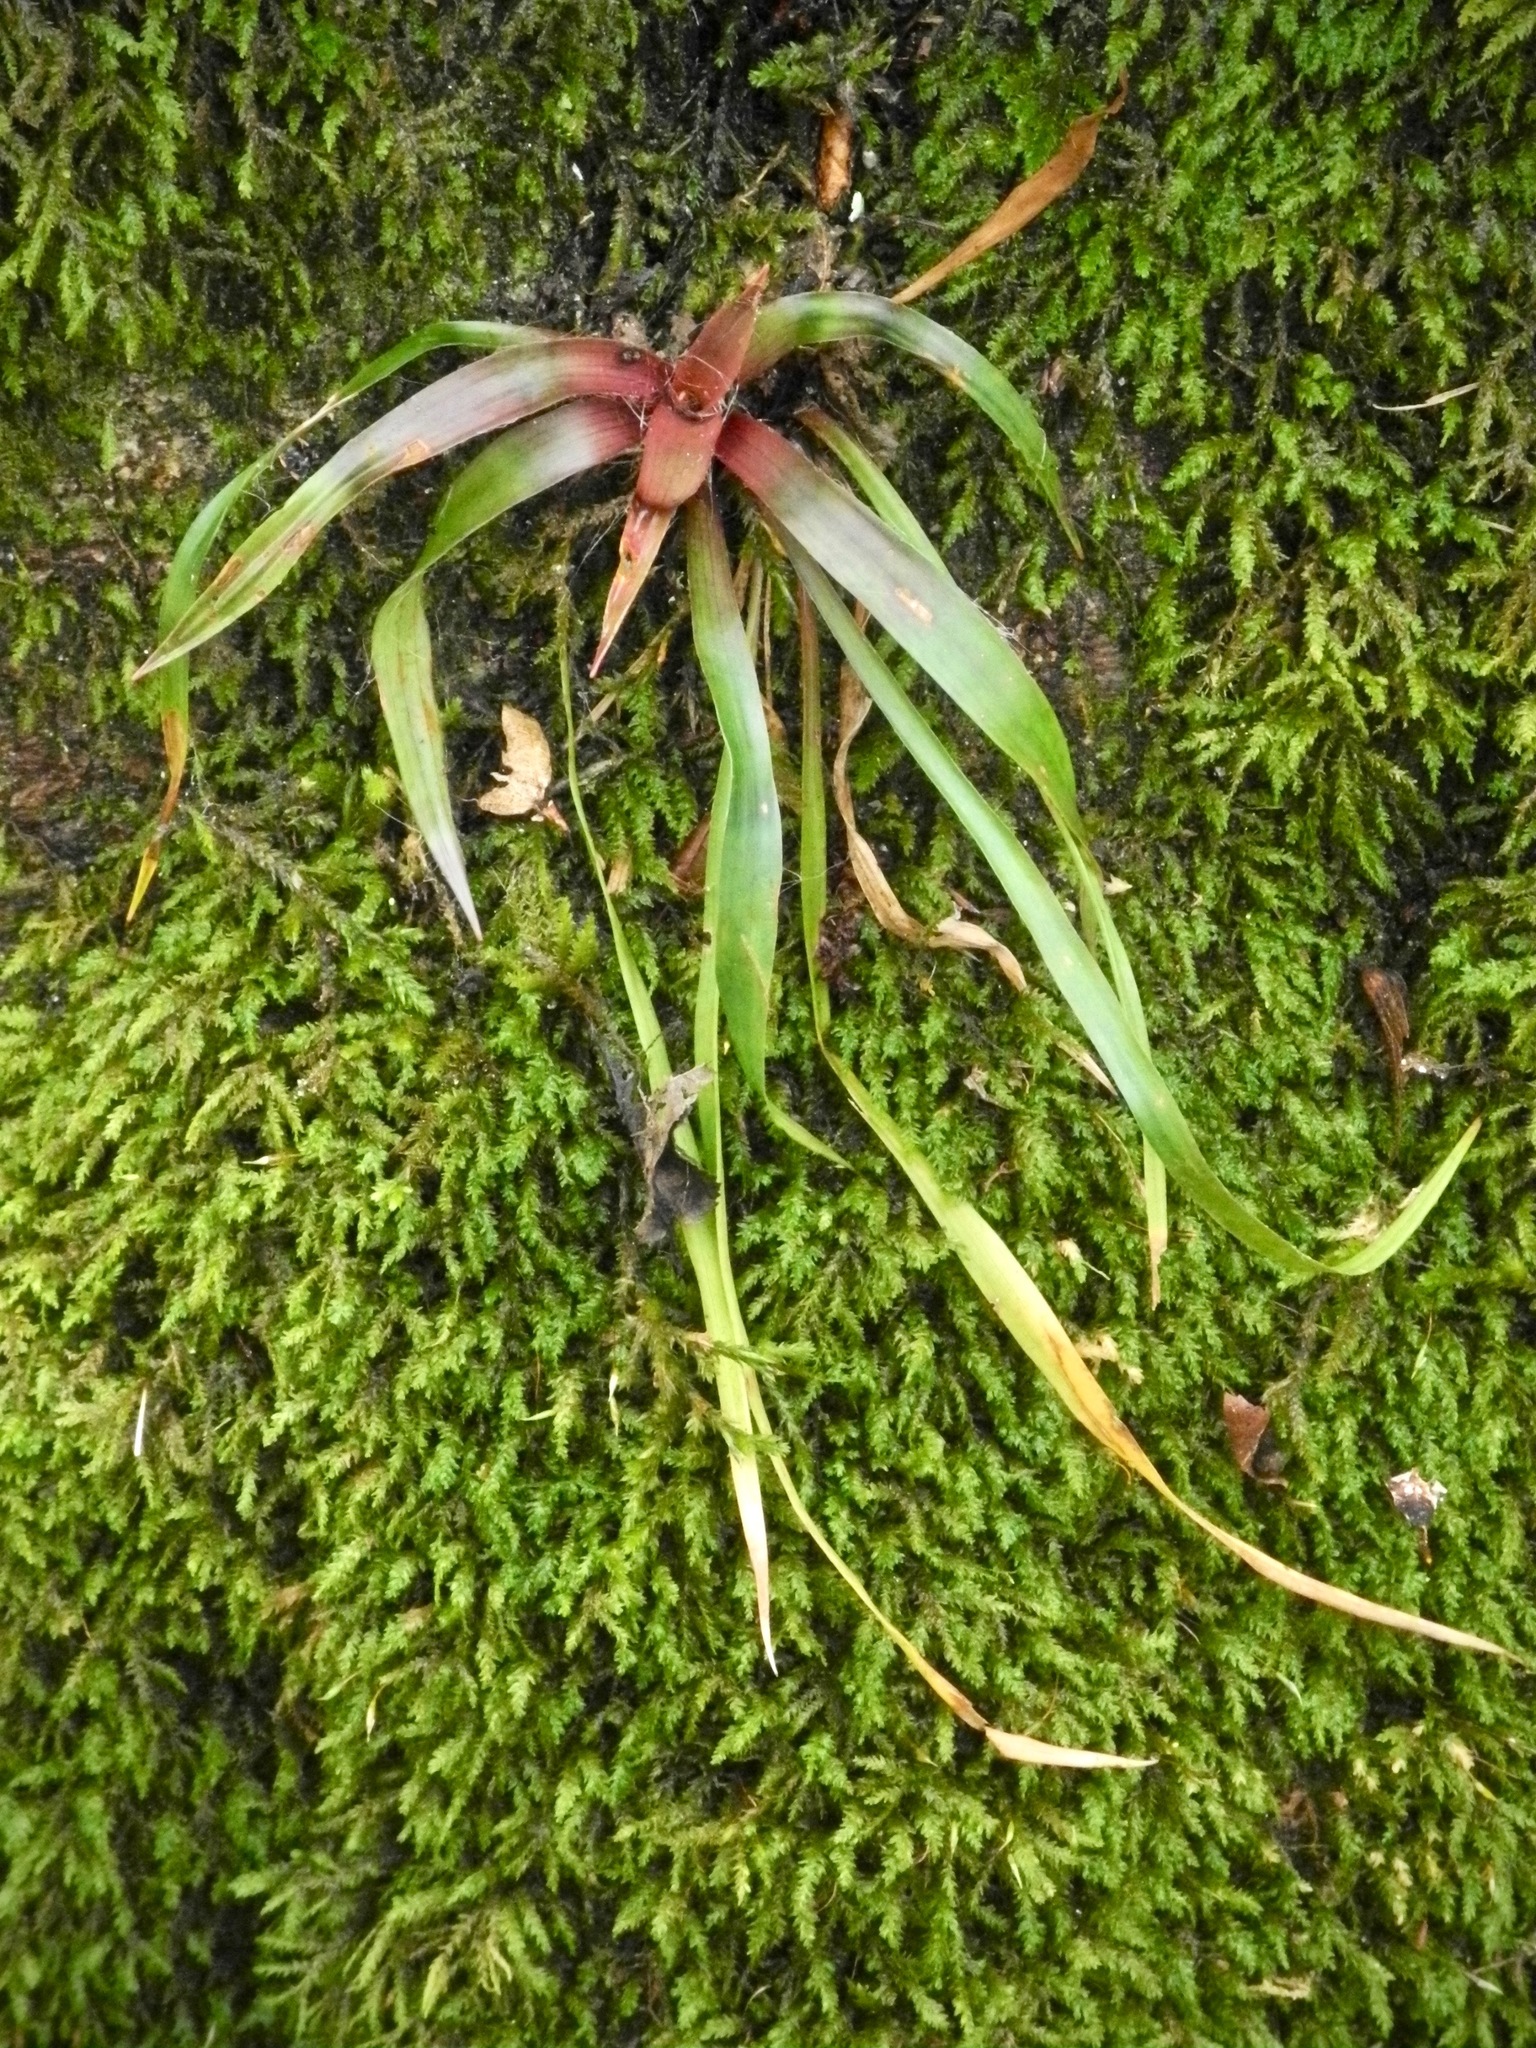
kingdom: Plantae
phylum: Tracheophyta
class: Liliopsida
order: Poales
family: Juncaceae
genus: Luzula
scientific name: Luzula echinata
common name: Hedgehog woodrush
